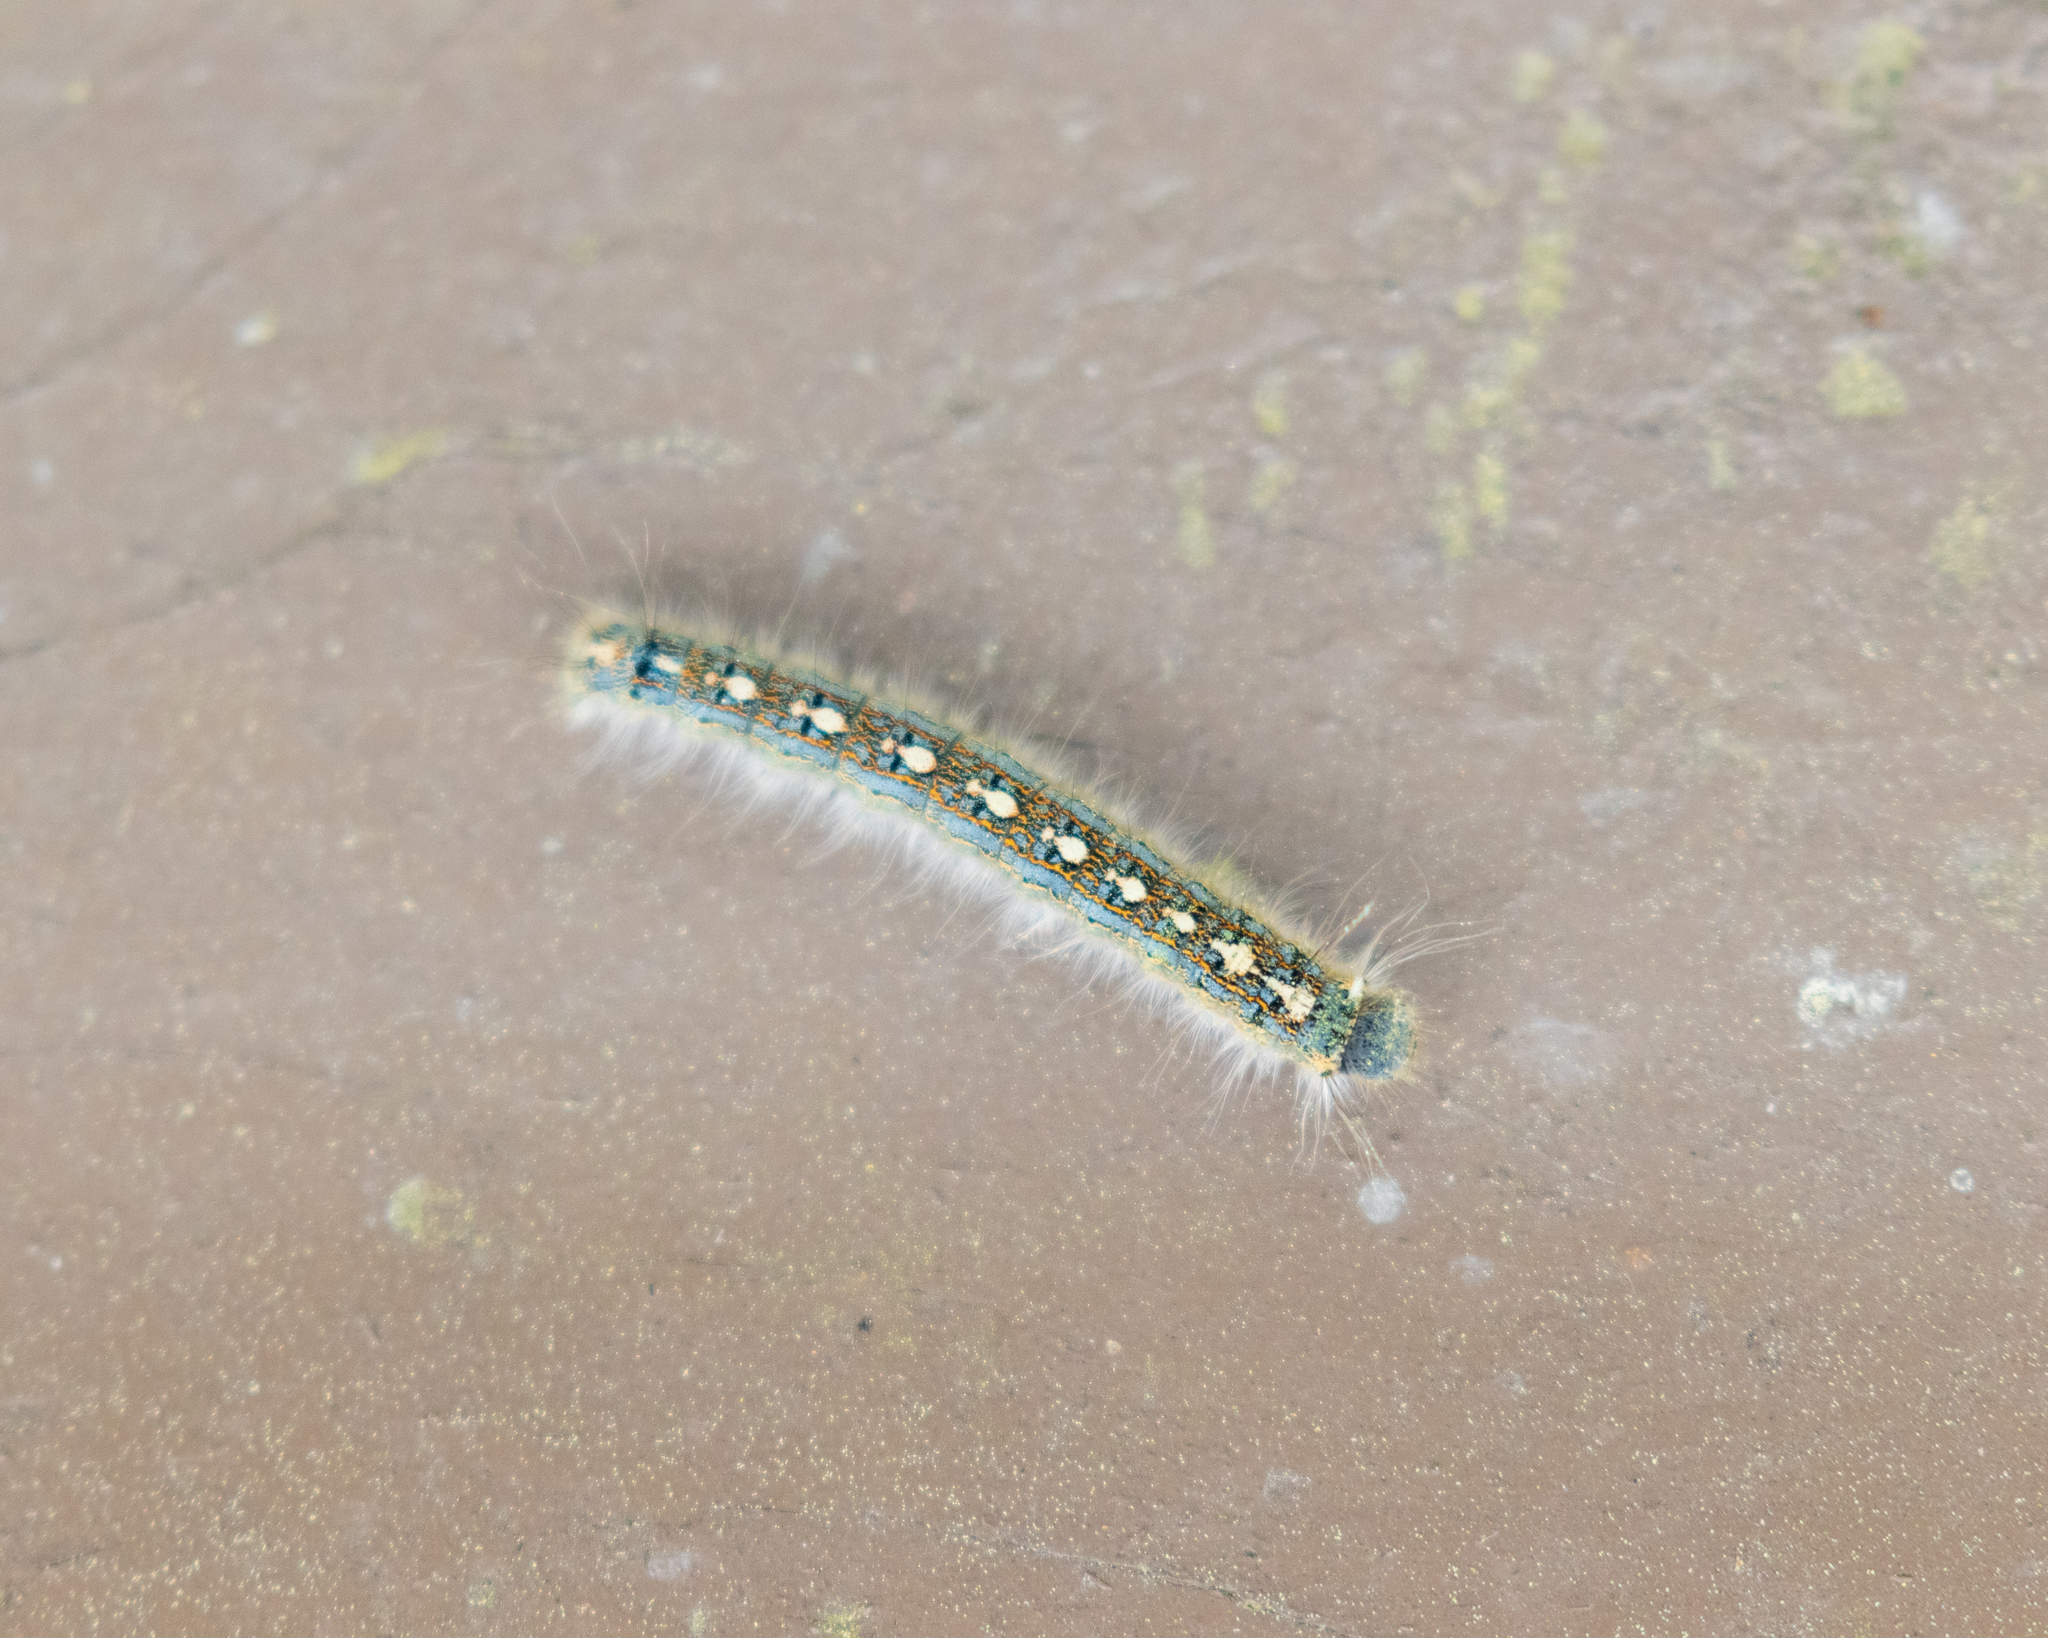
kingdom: Animalia
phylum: Arthropoda
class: Insecta
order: Lepidoptera
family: Lasiocampidae
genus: Malacosoma
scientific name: Malacosoma disstria
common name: Forest tent caterpillar
